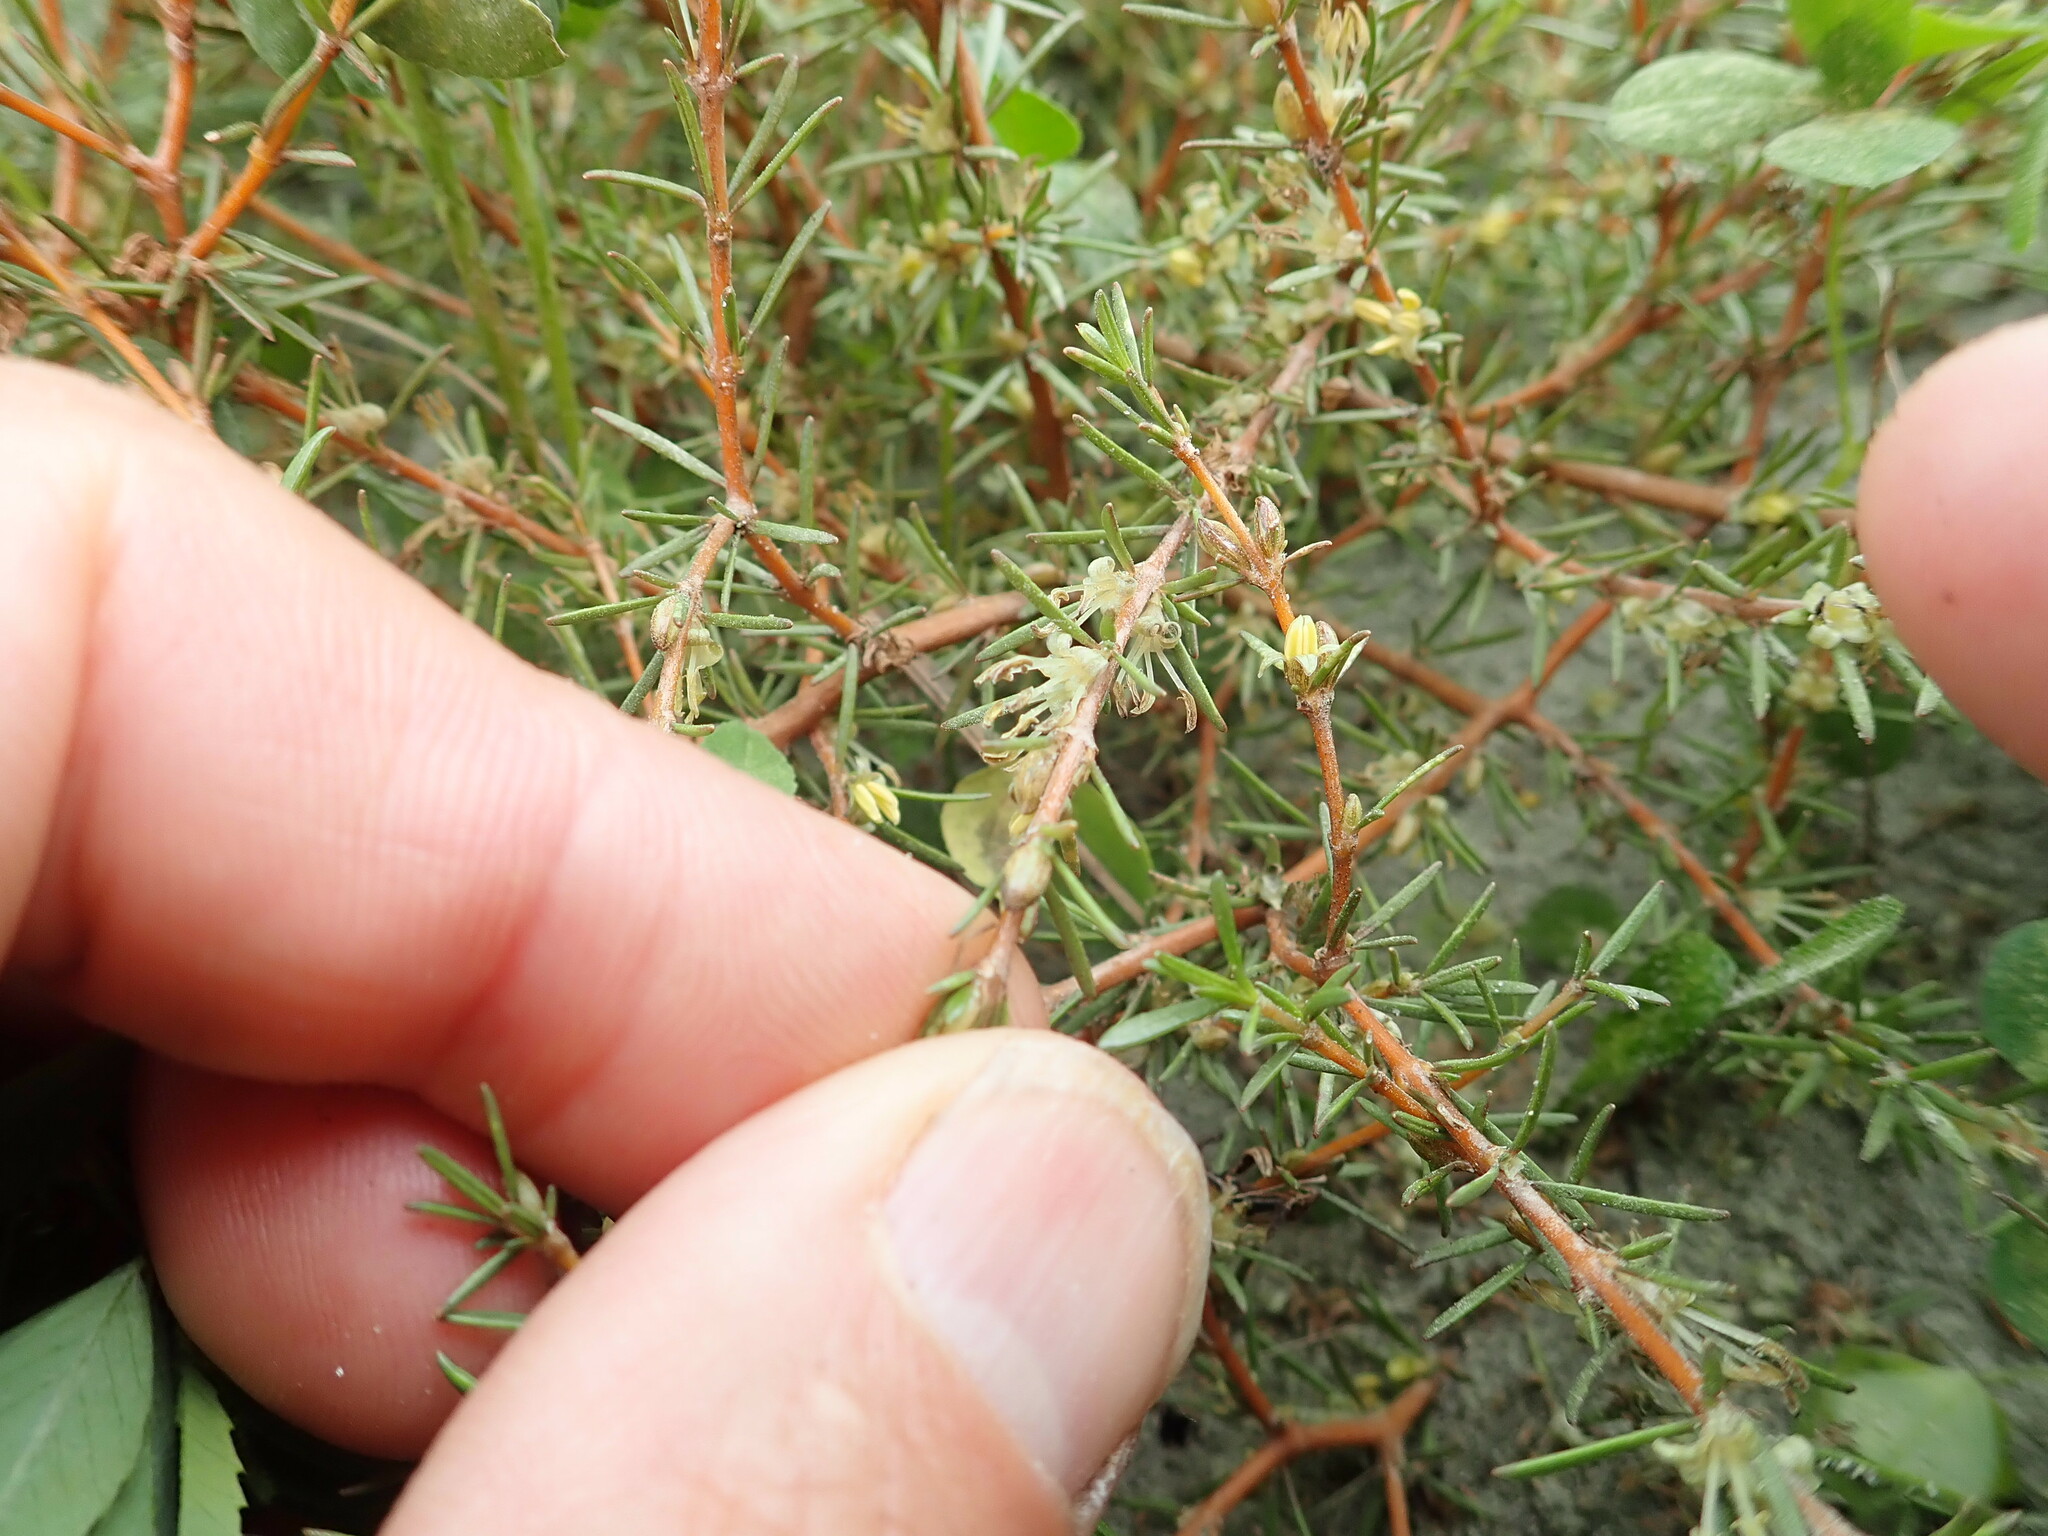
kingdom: Plantae
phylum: Tracheophyta
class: Magnoliopsida
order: Gentianales
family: Rubiaceae
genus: Coprosma
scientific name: Coprosma acerosa
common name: Sand coprosma
